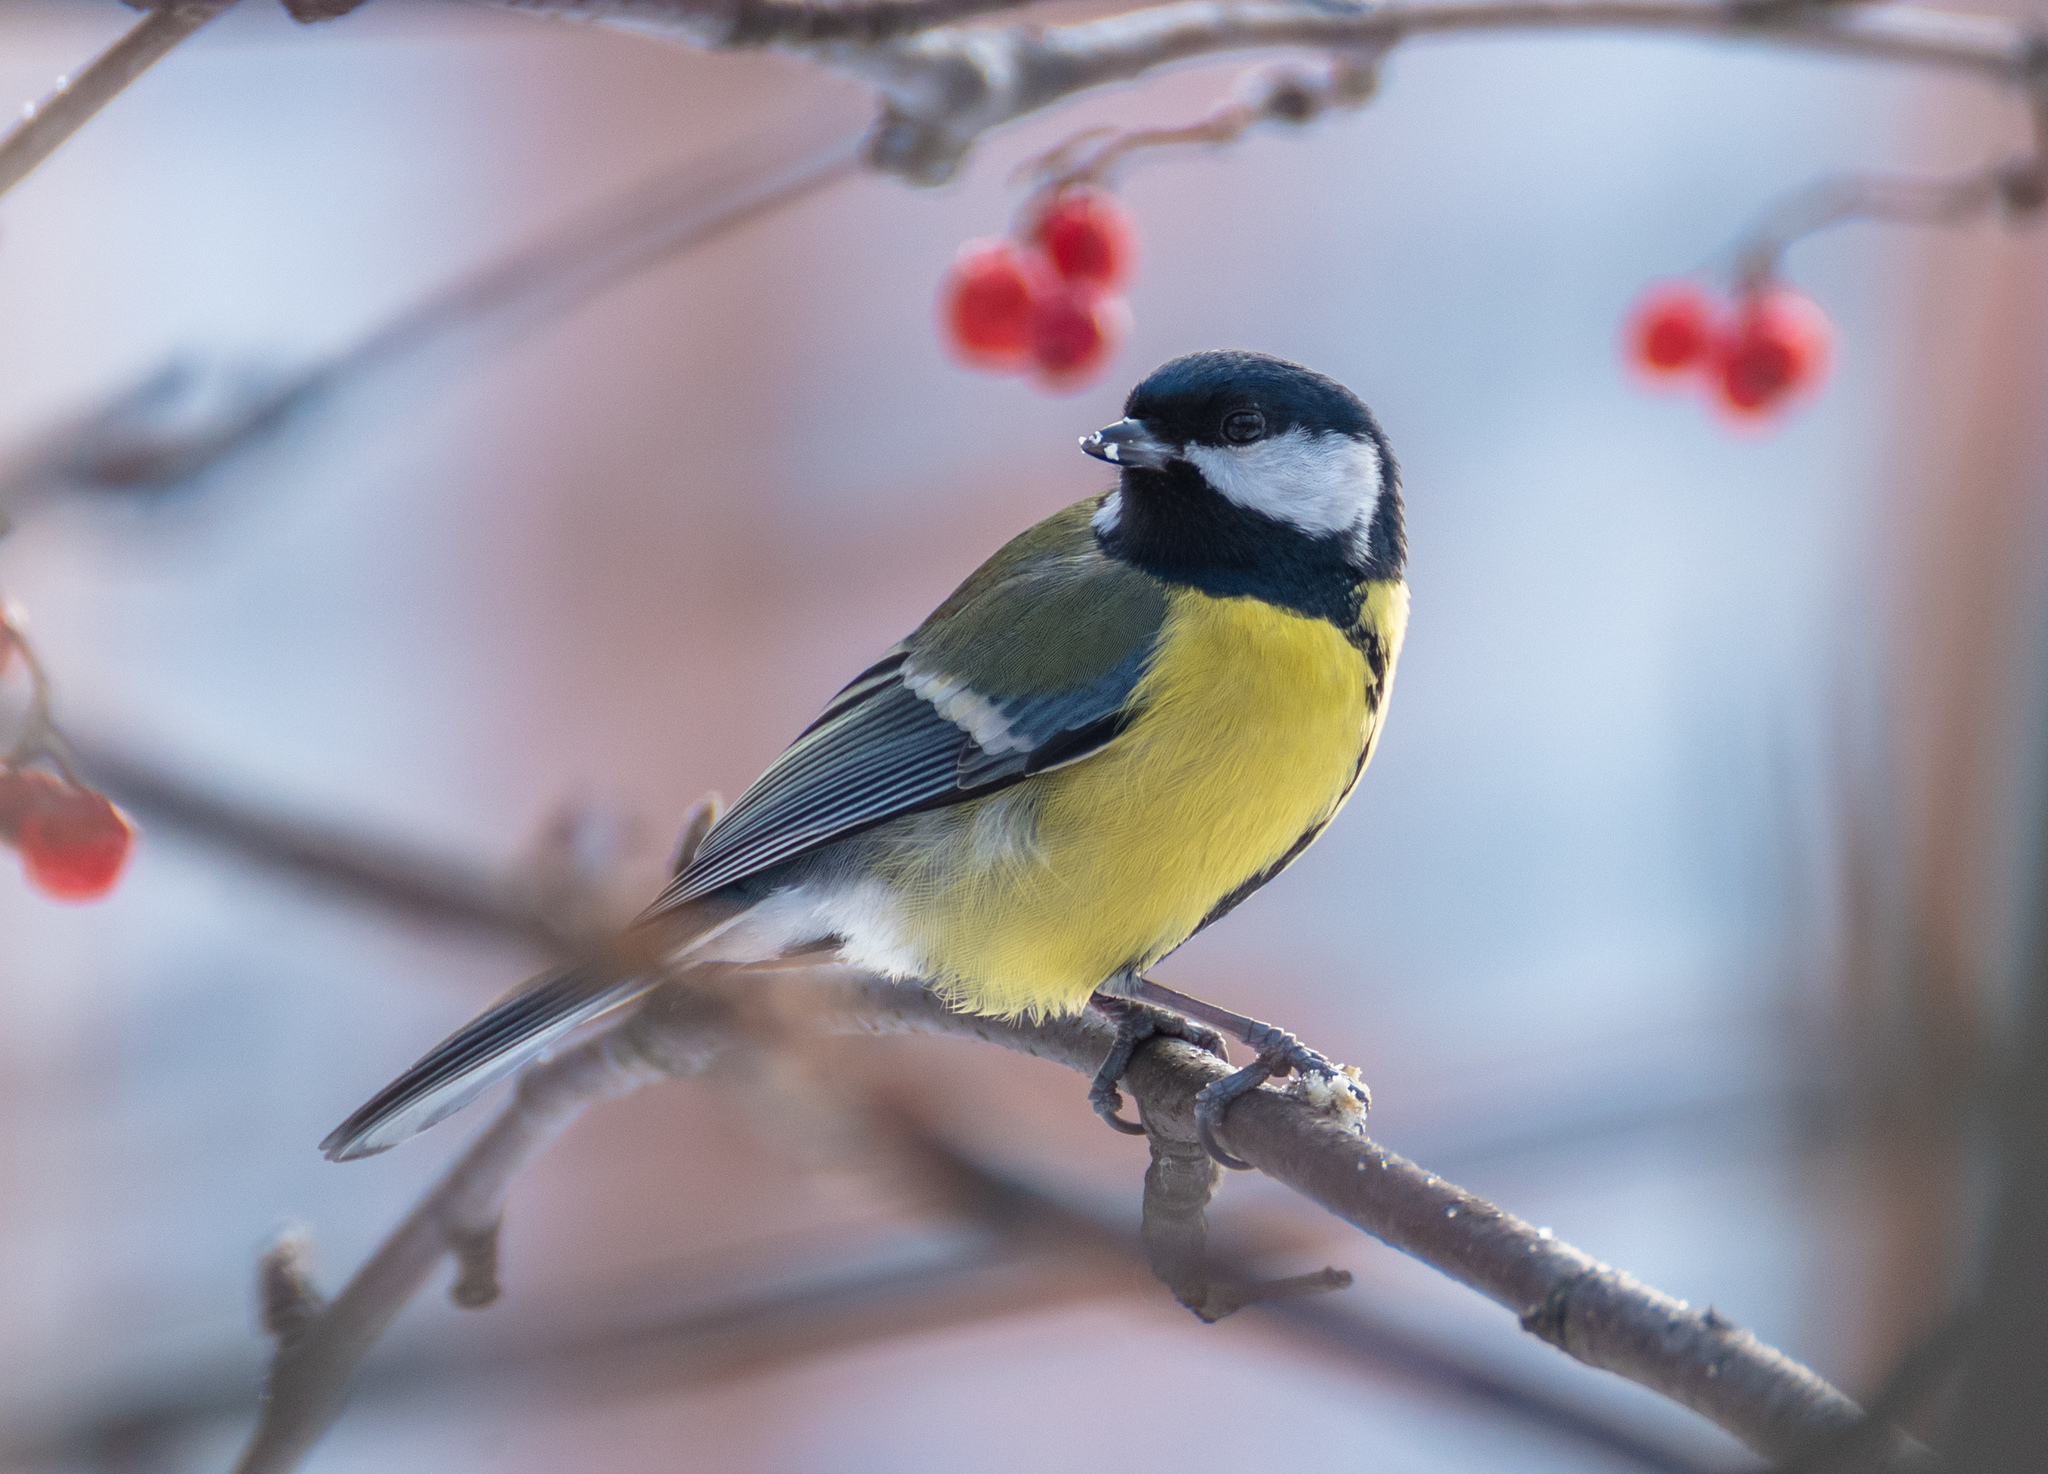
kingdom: Animalia
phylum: Chordata
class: Aves
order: Passeriformes
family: Paridae
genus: Parus
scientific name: Parus major
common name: Great tit
